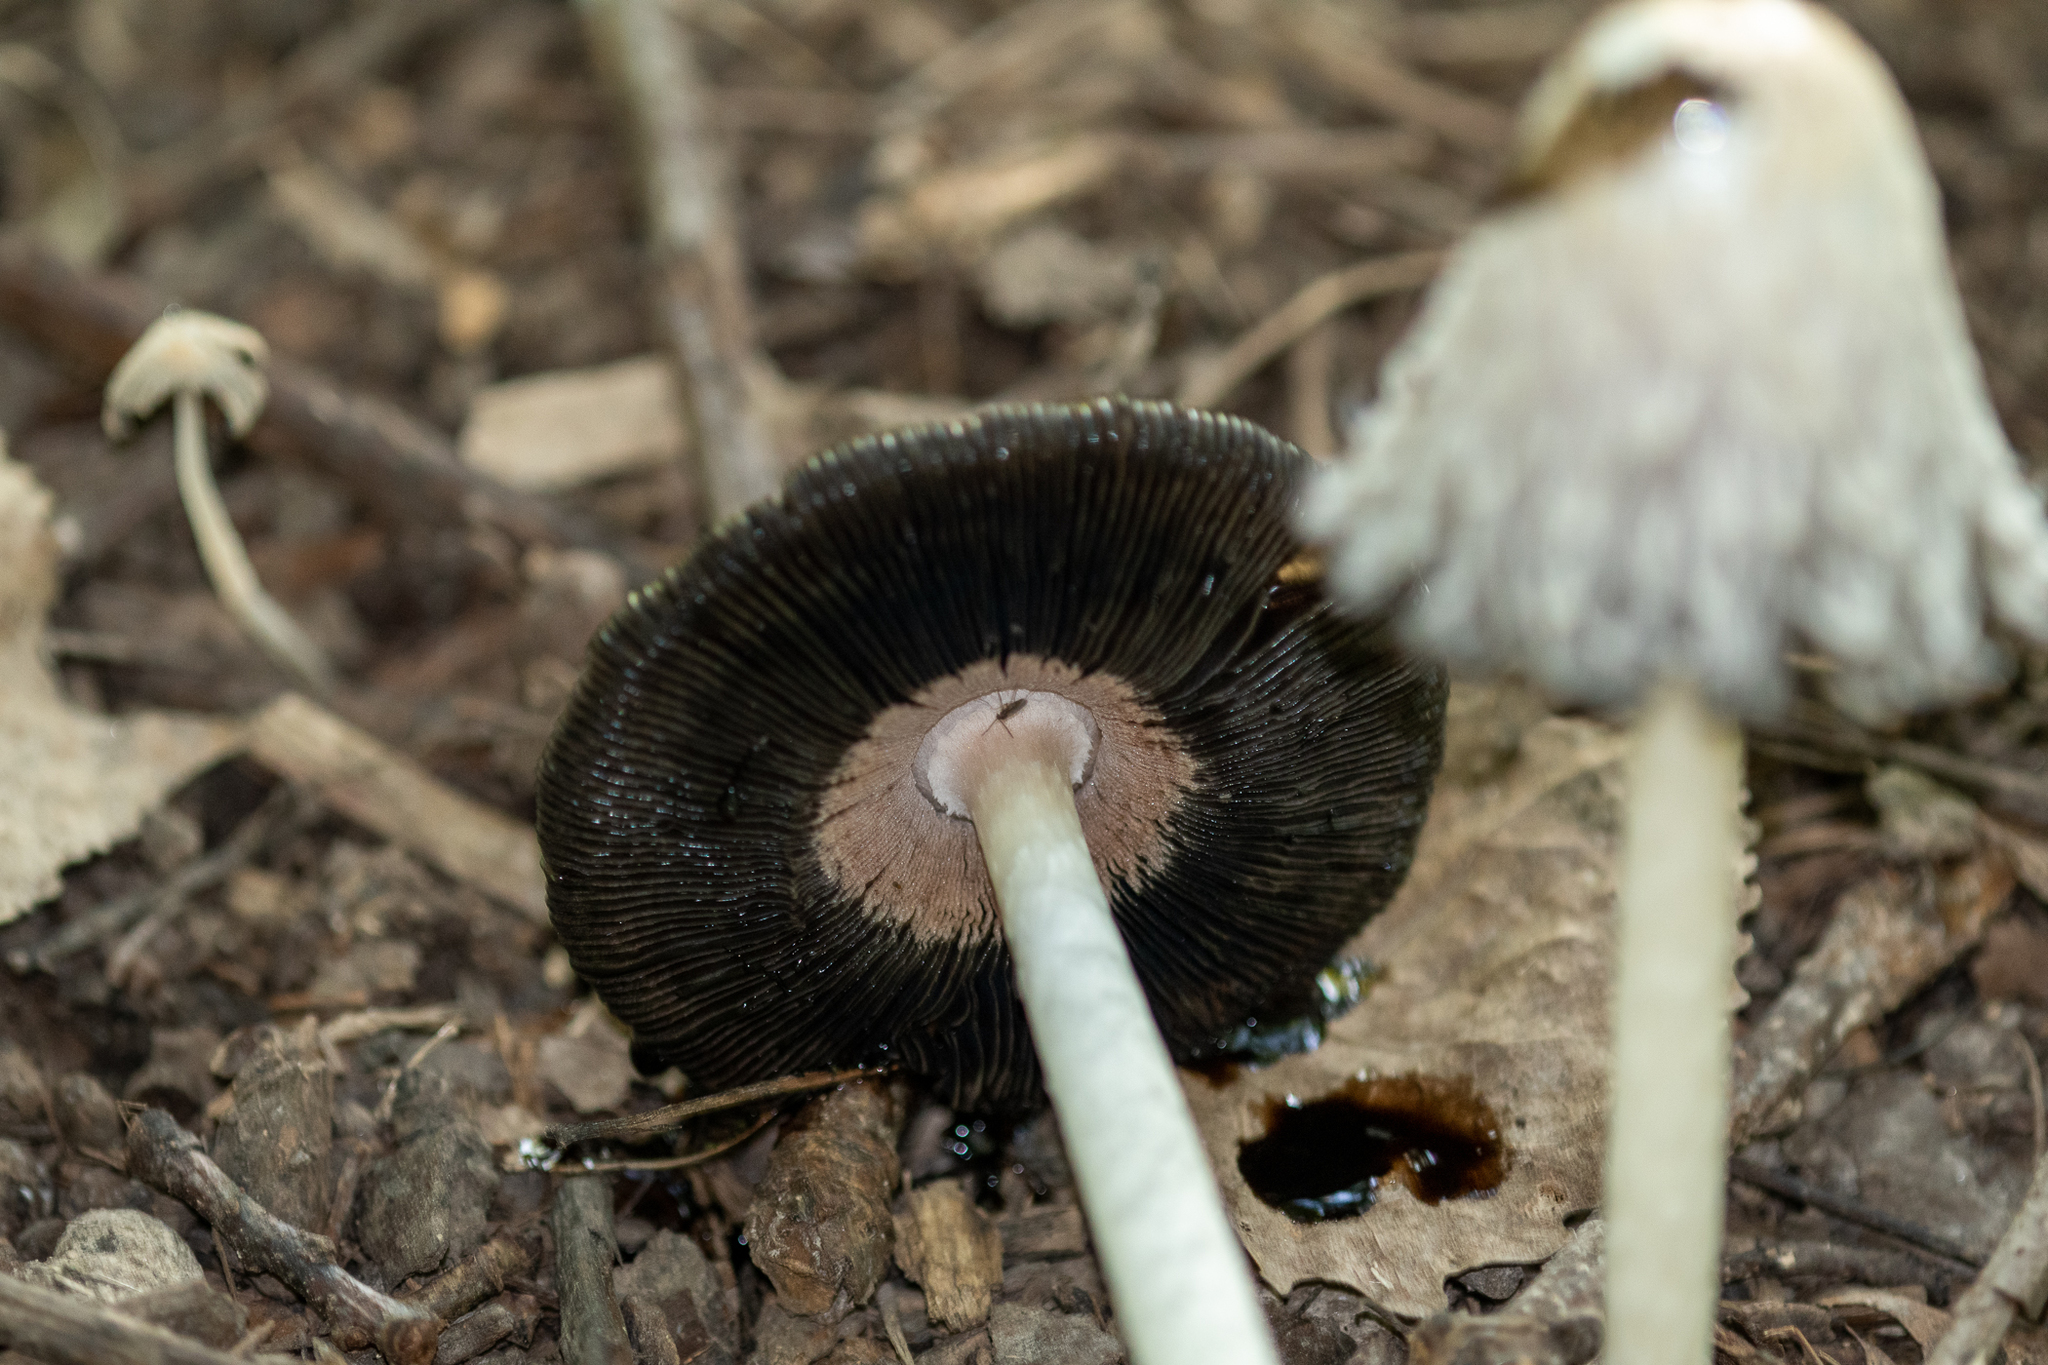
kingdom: Fungi
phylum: Basidiomycota
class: Agaricomycetes
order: Agaricales
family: Agaricaceae
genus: Coprinus
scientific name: Coprinus comatus
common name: Lawyer's wig
